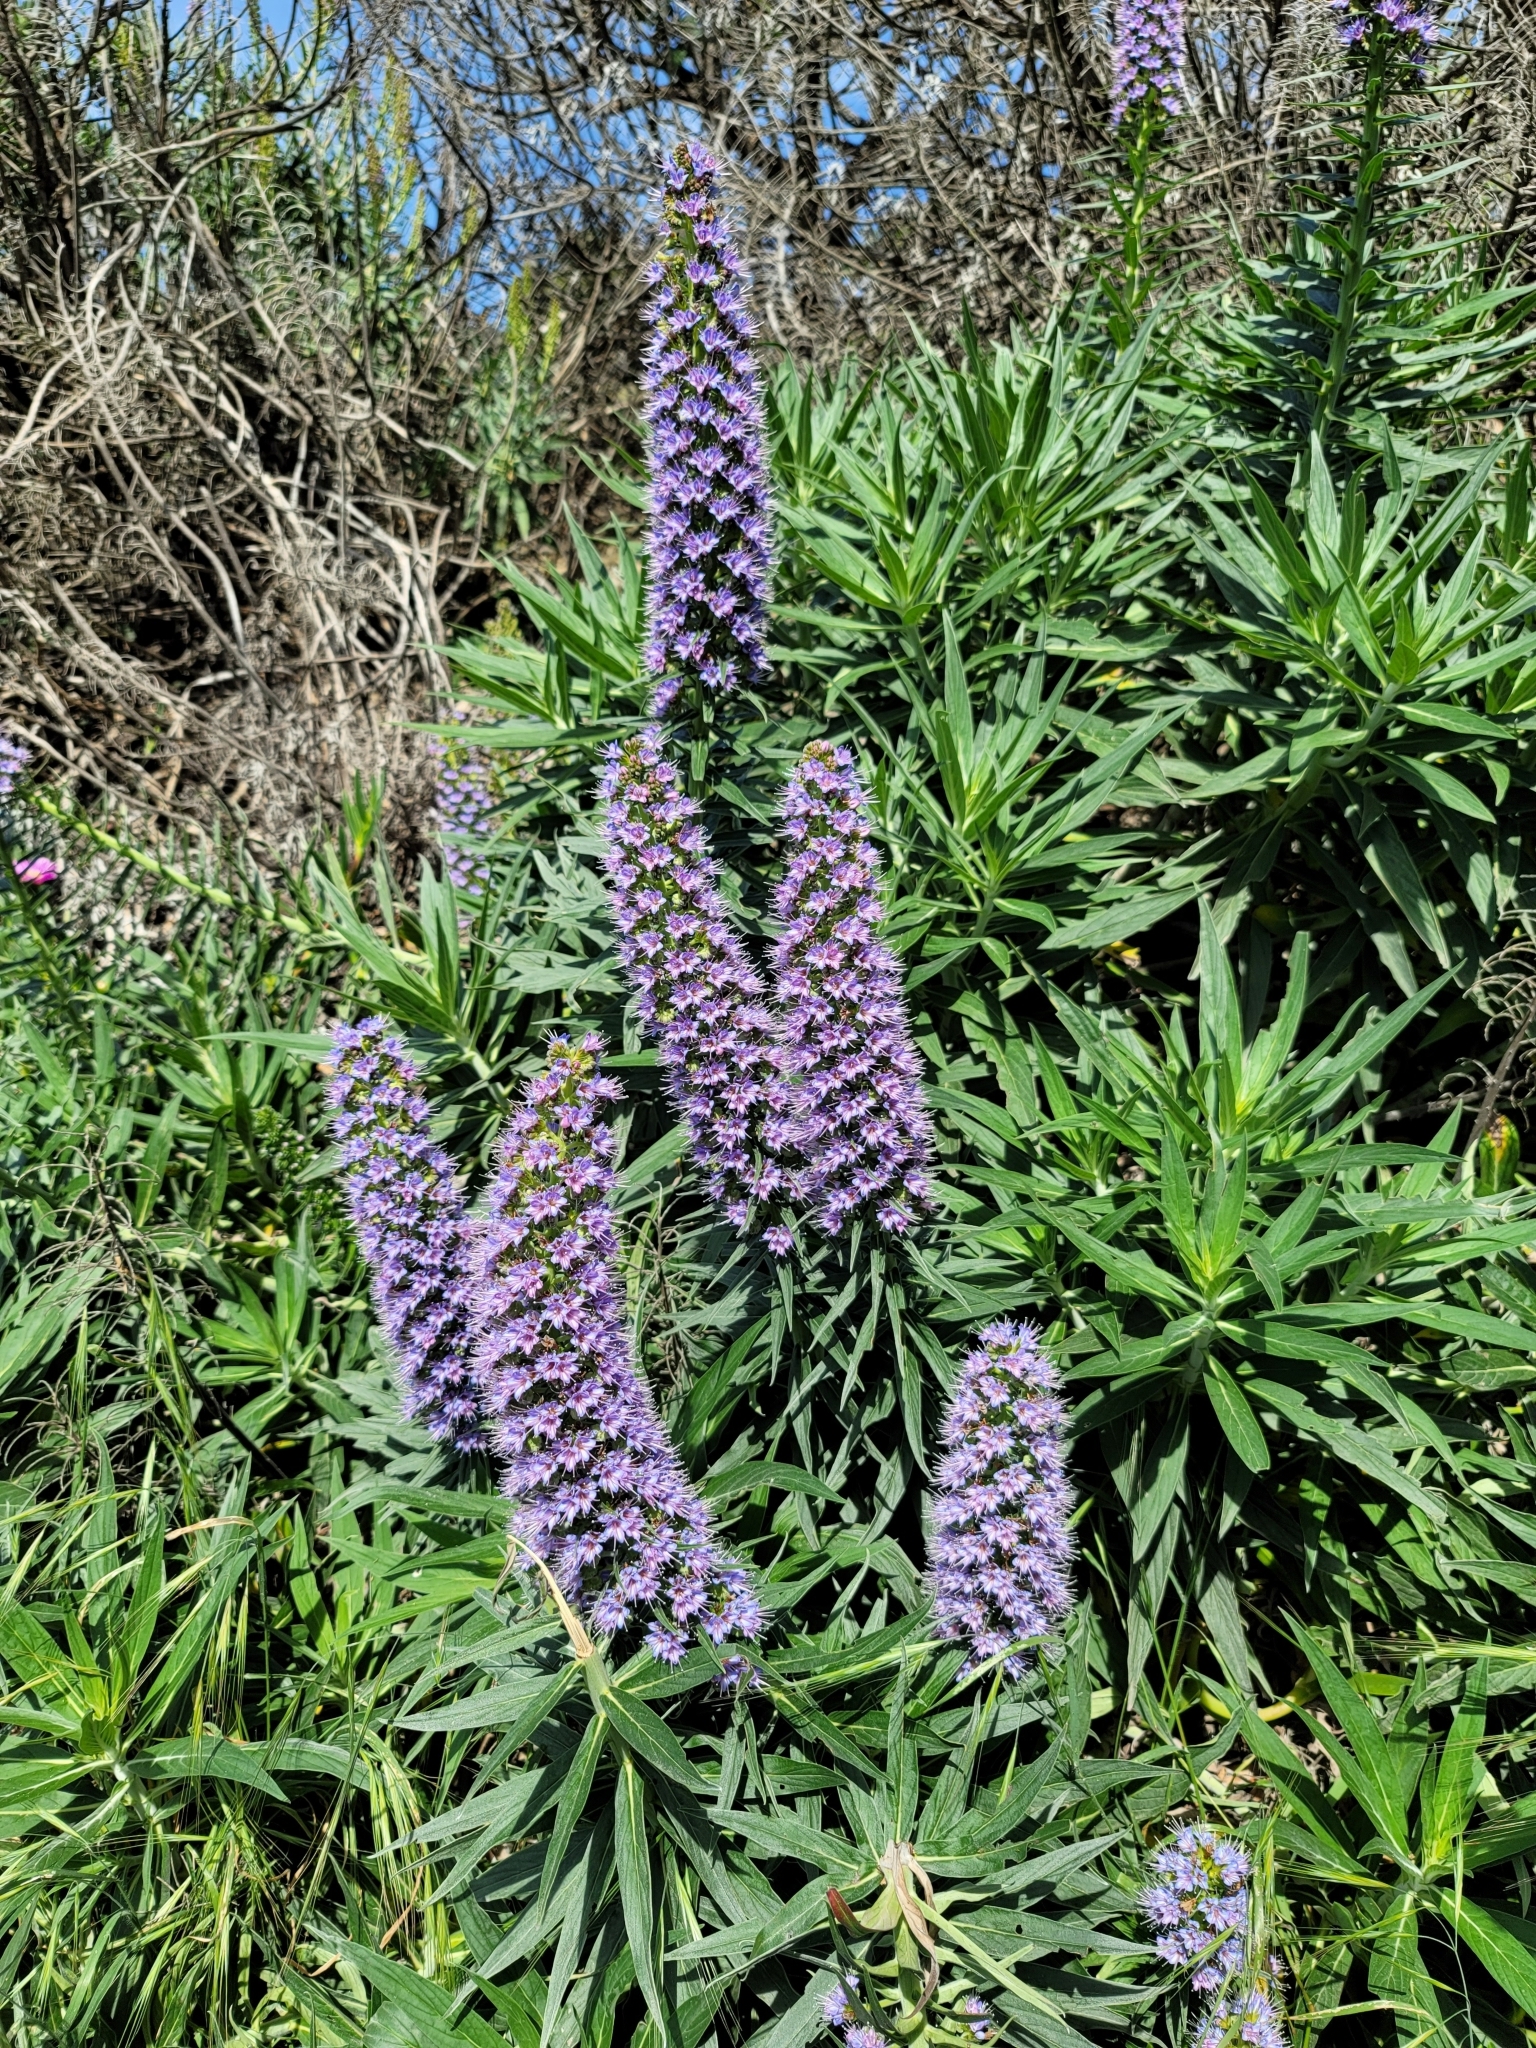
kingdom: Plantae
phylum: Tracheophyta
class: Magnoliopsida
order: Boraginales
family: Boraginaceae
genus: Echium
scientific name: Echium candicans
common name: Pride of madeira
